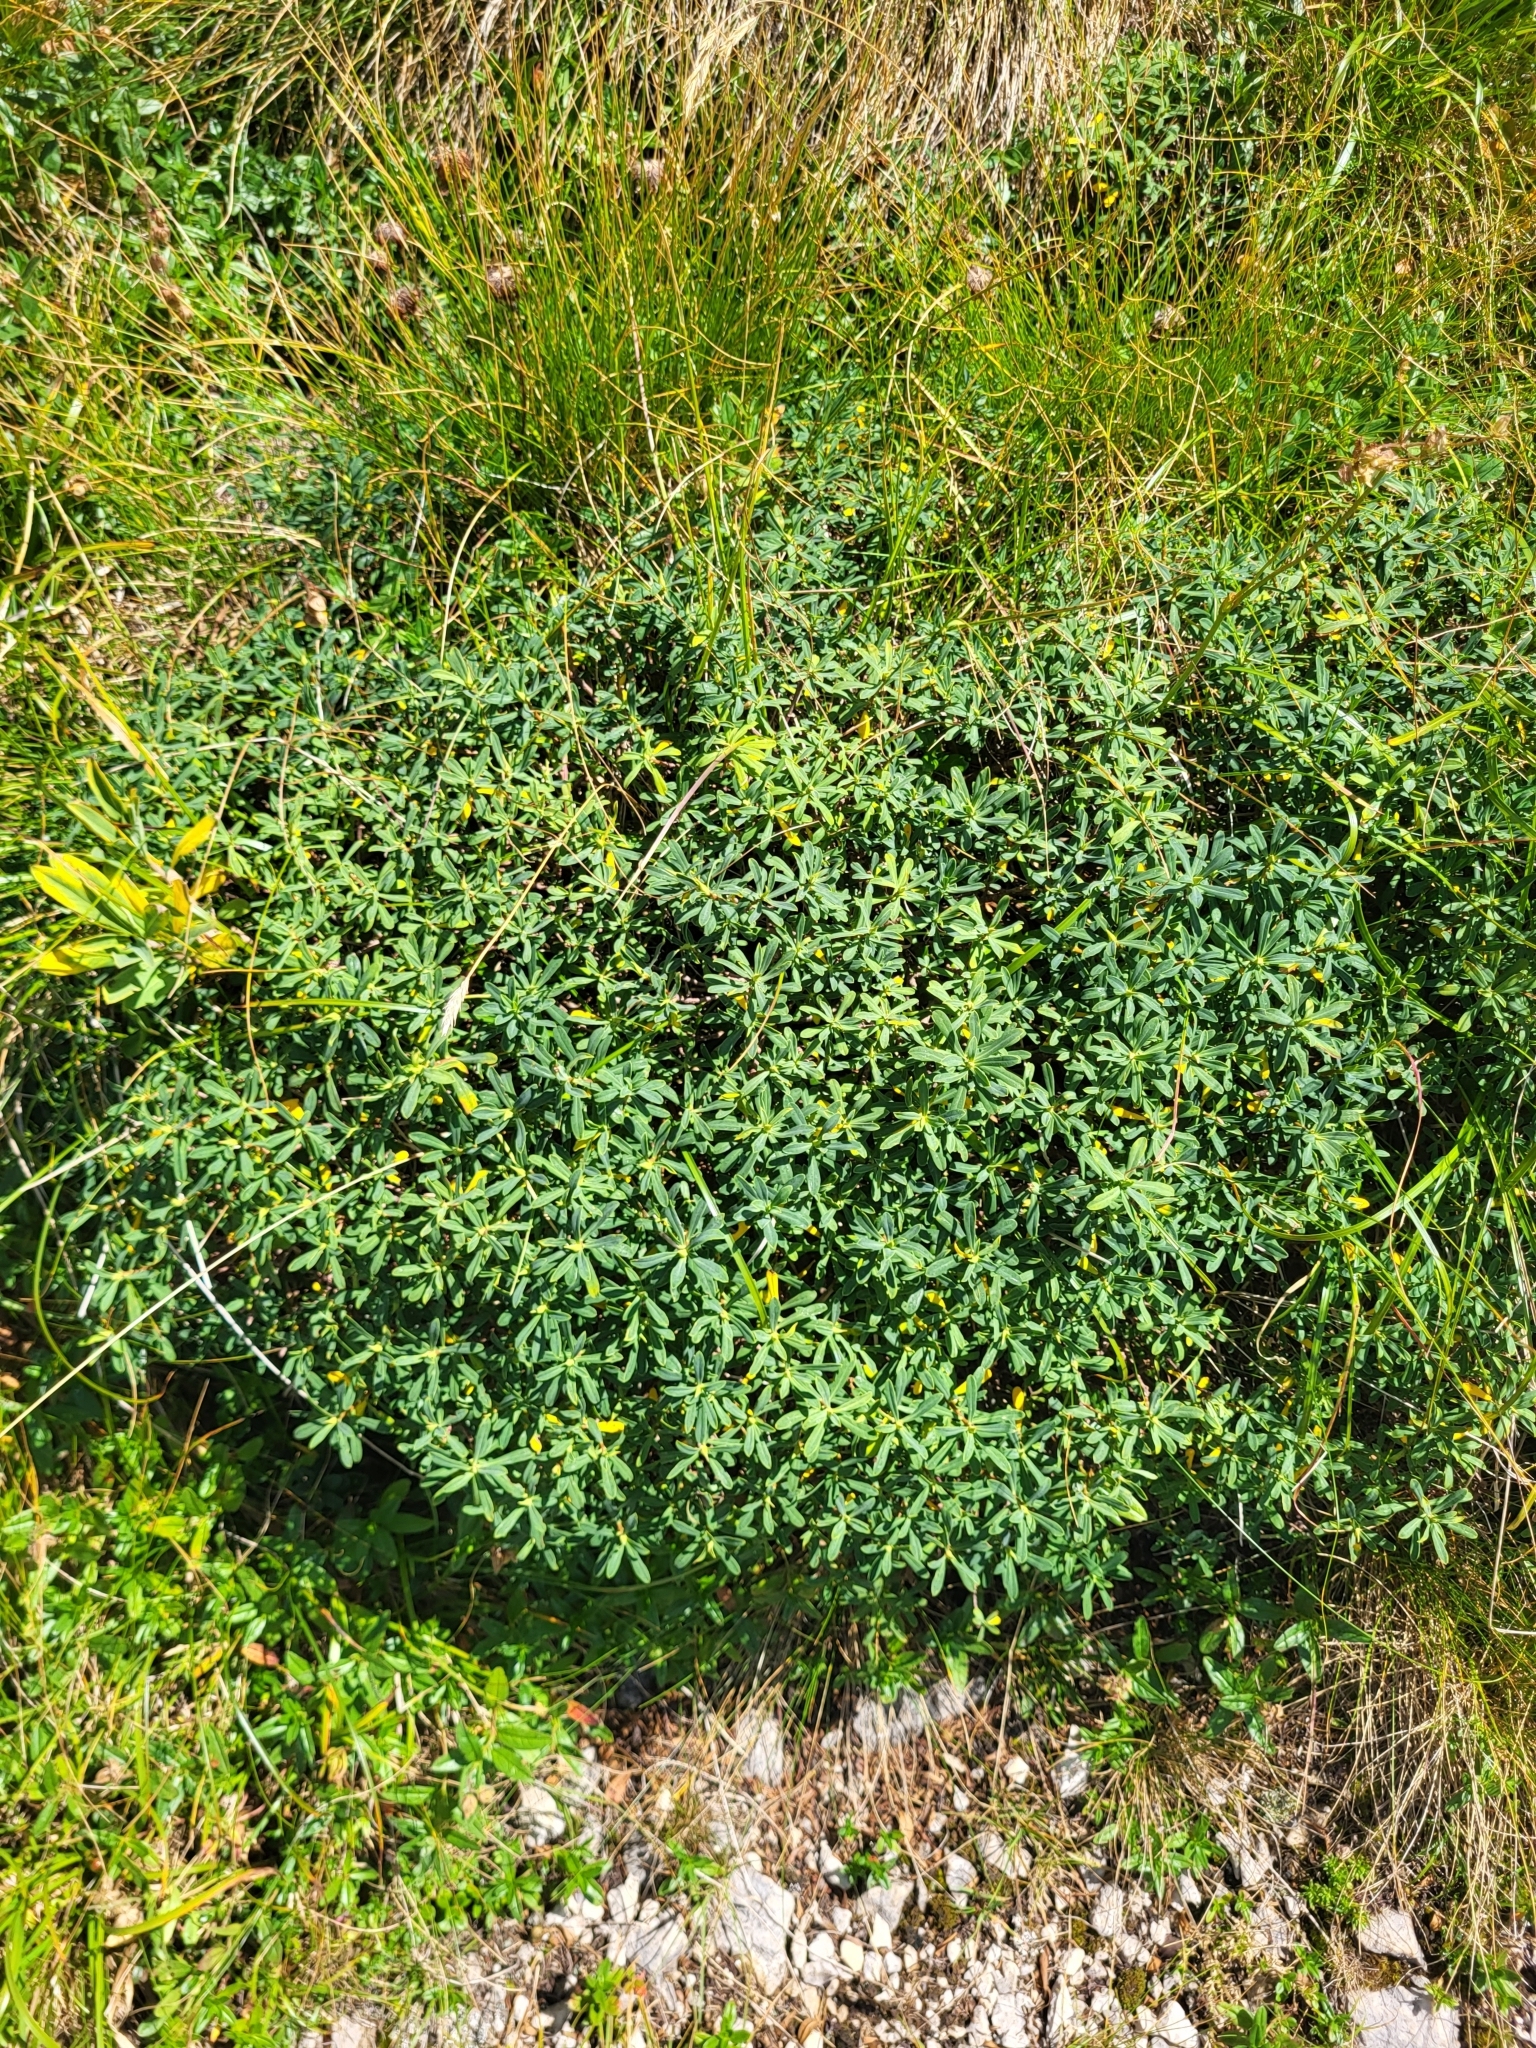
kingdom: Plantae
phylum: Tracheophyta
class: Magnoliopsida
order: Malvales
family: Thymelaeaceae
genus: Daphne
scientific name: Daphne striata
